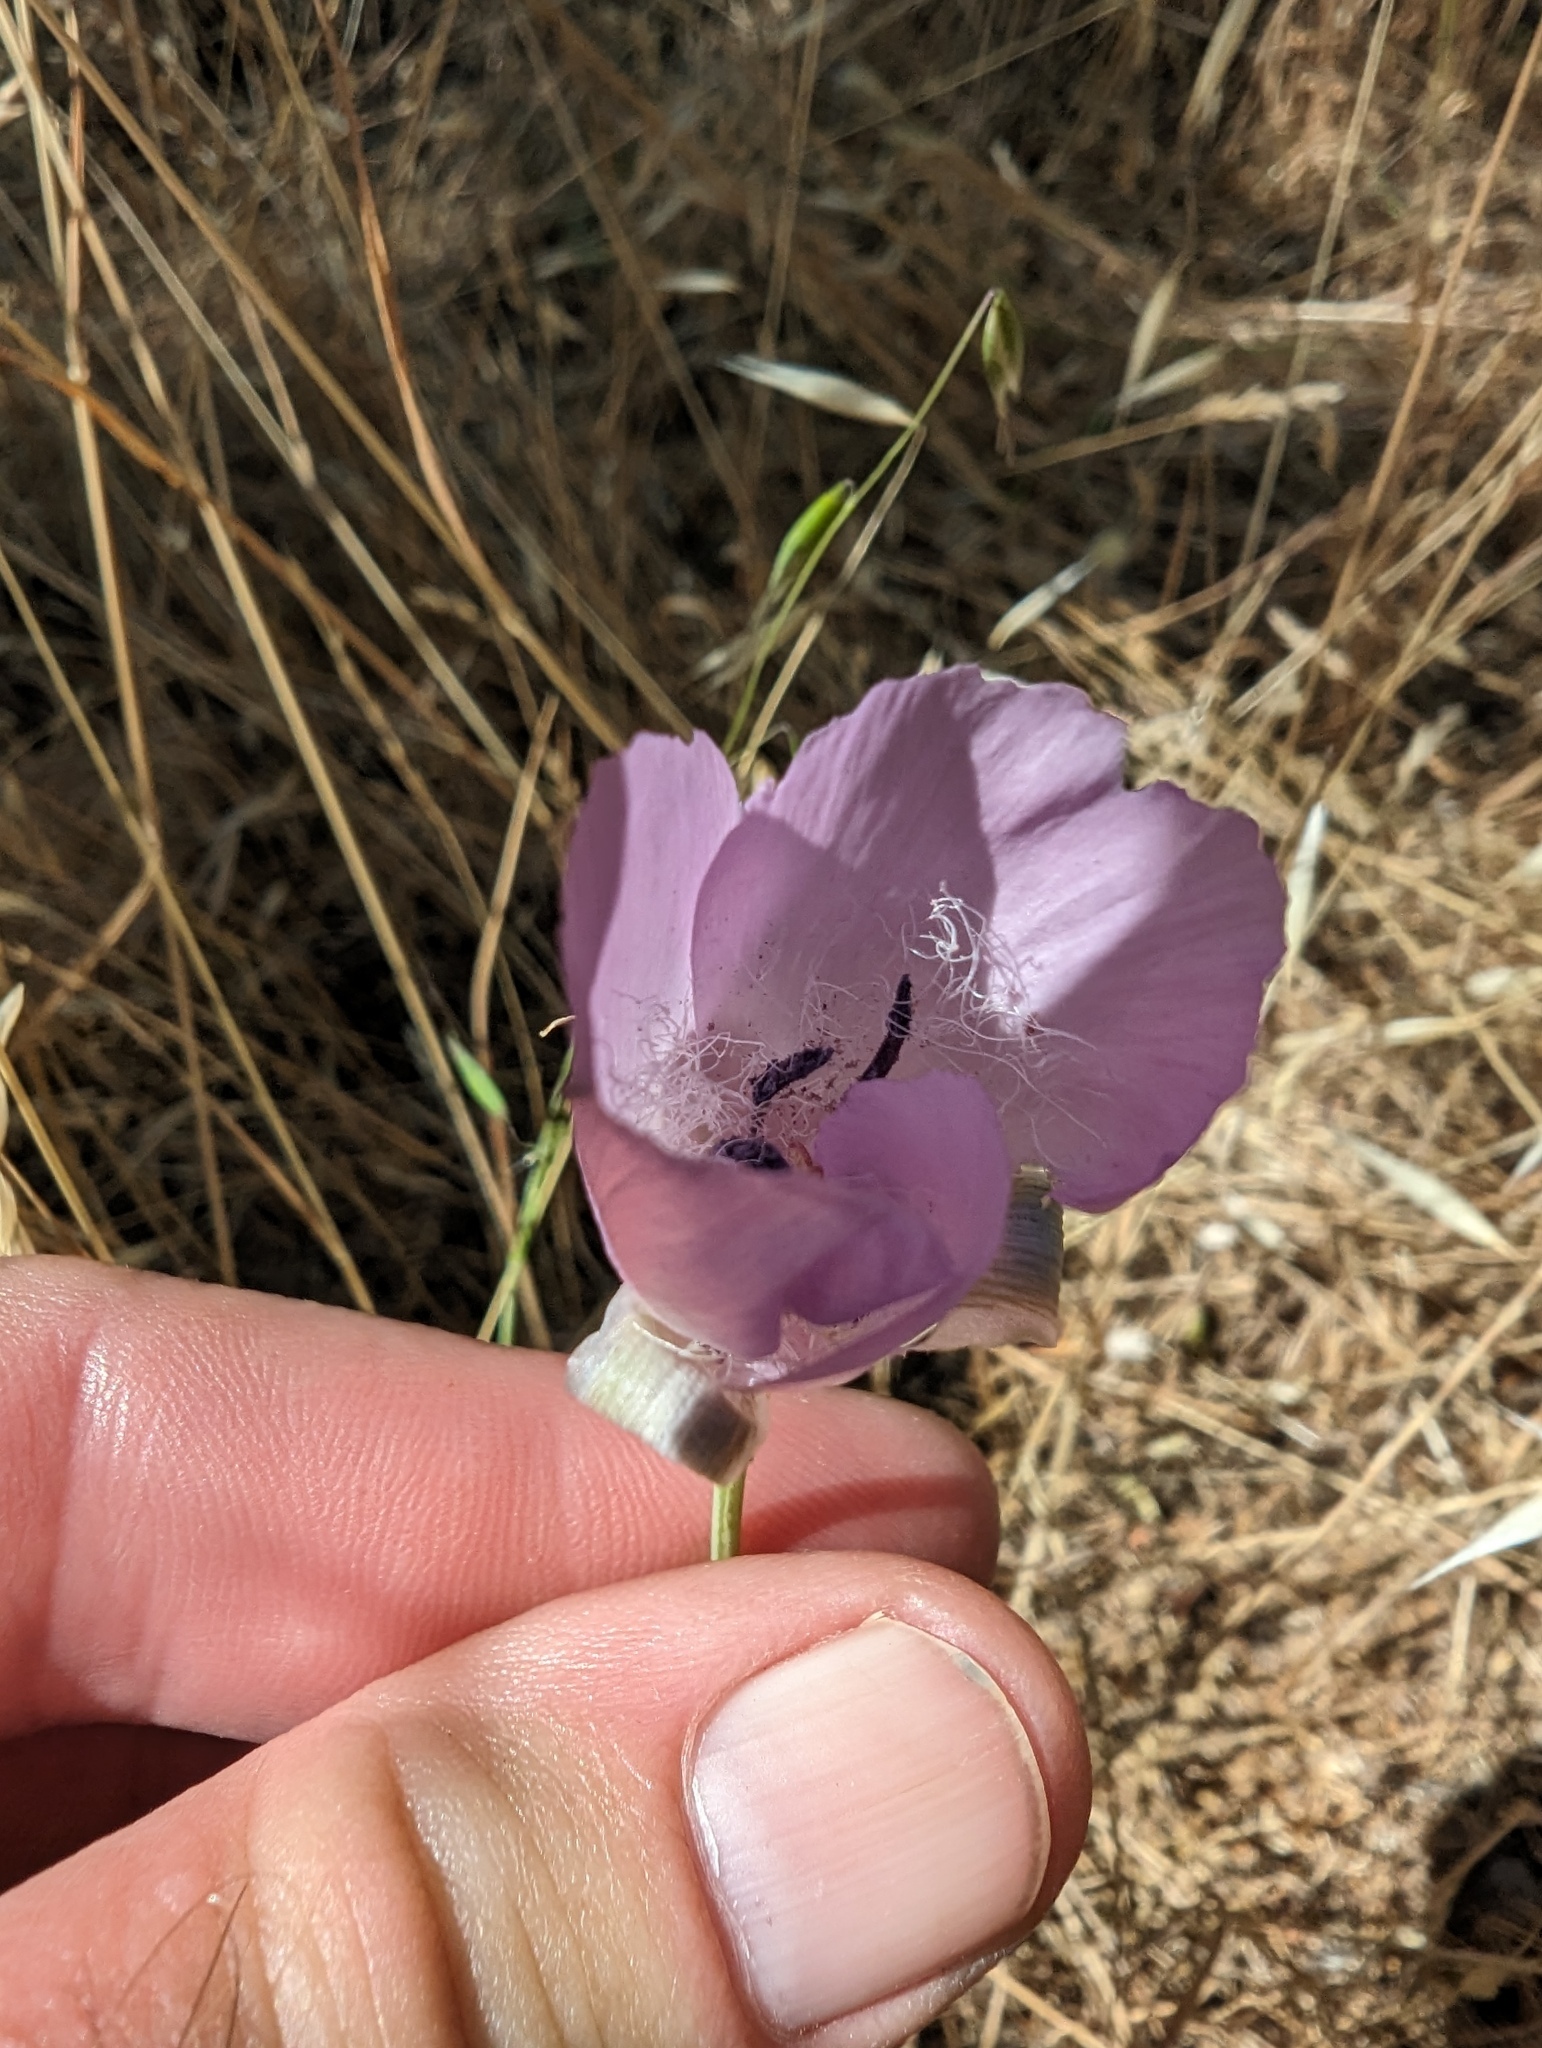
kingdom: Plantae
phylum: Tracheophyta
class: Liliopsida
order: Liliales
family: Liliaceae
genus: Calochortus
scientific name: Calochortus splendens
